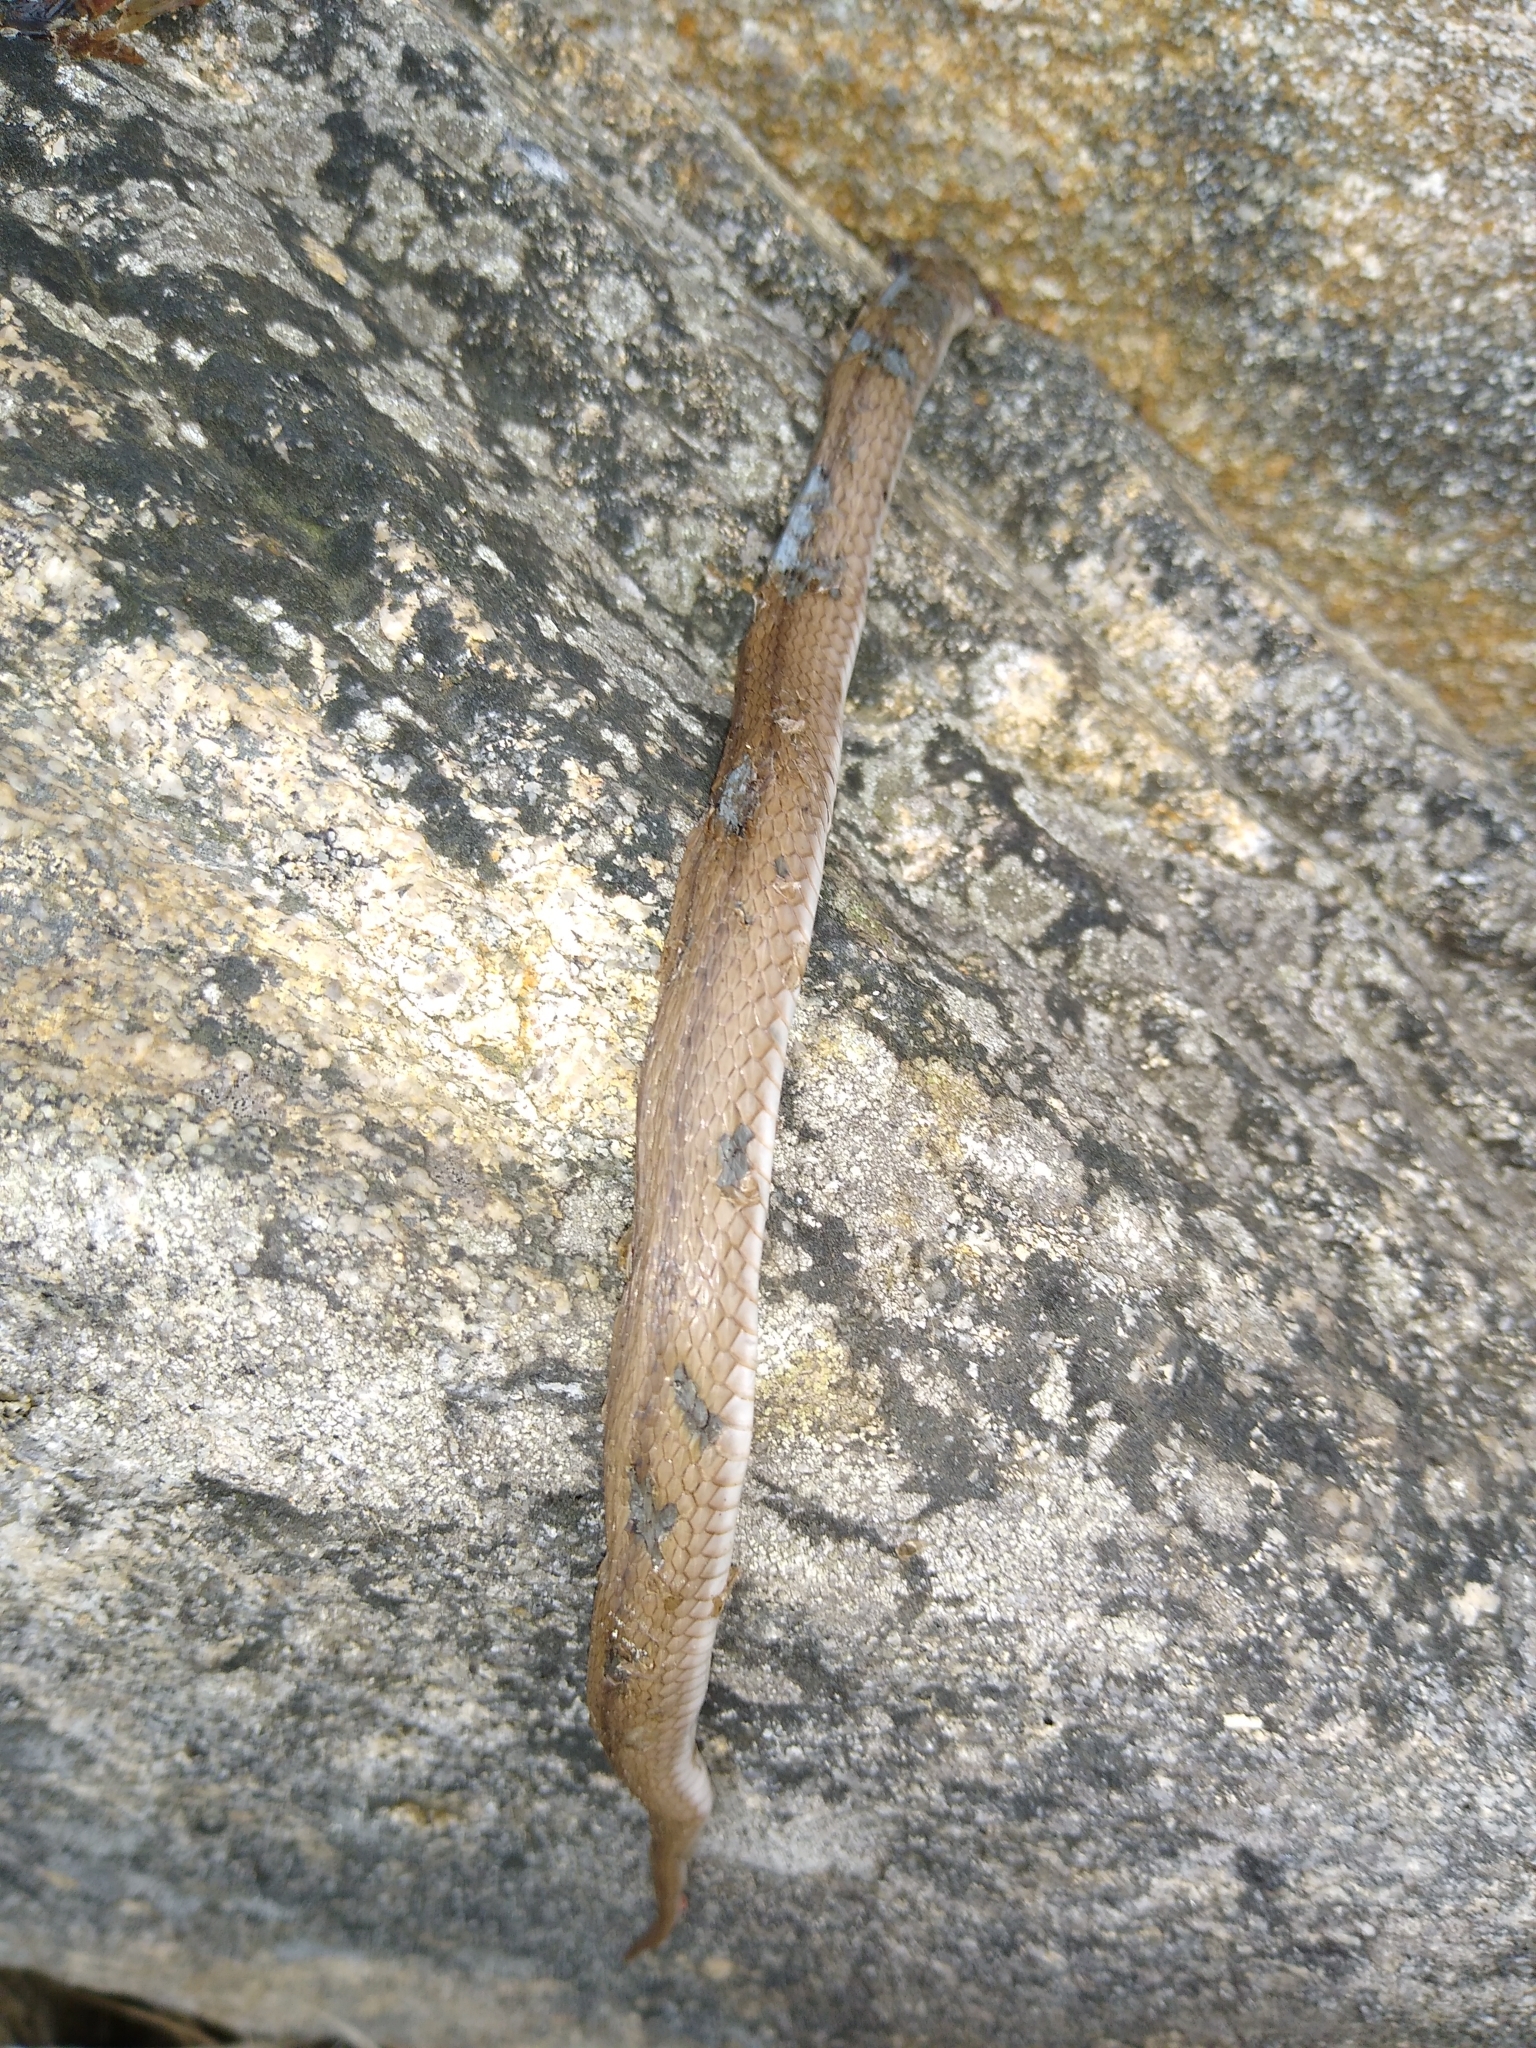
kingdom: Animalia
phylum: Chordata
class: Squamata
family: Colubridae
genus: Storeria
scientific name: Storeria dekayi
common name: (dekay’s) brown snake
